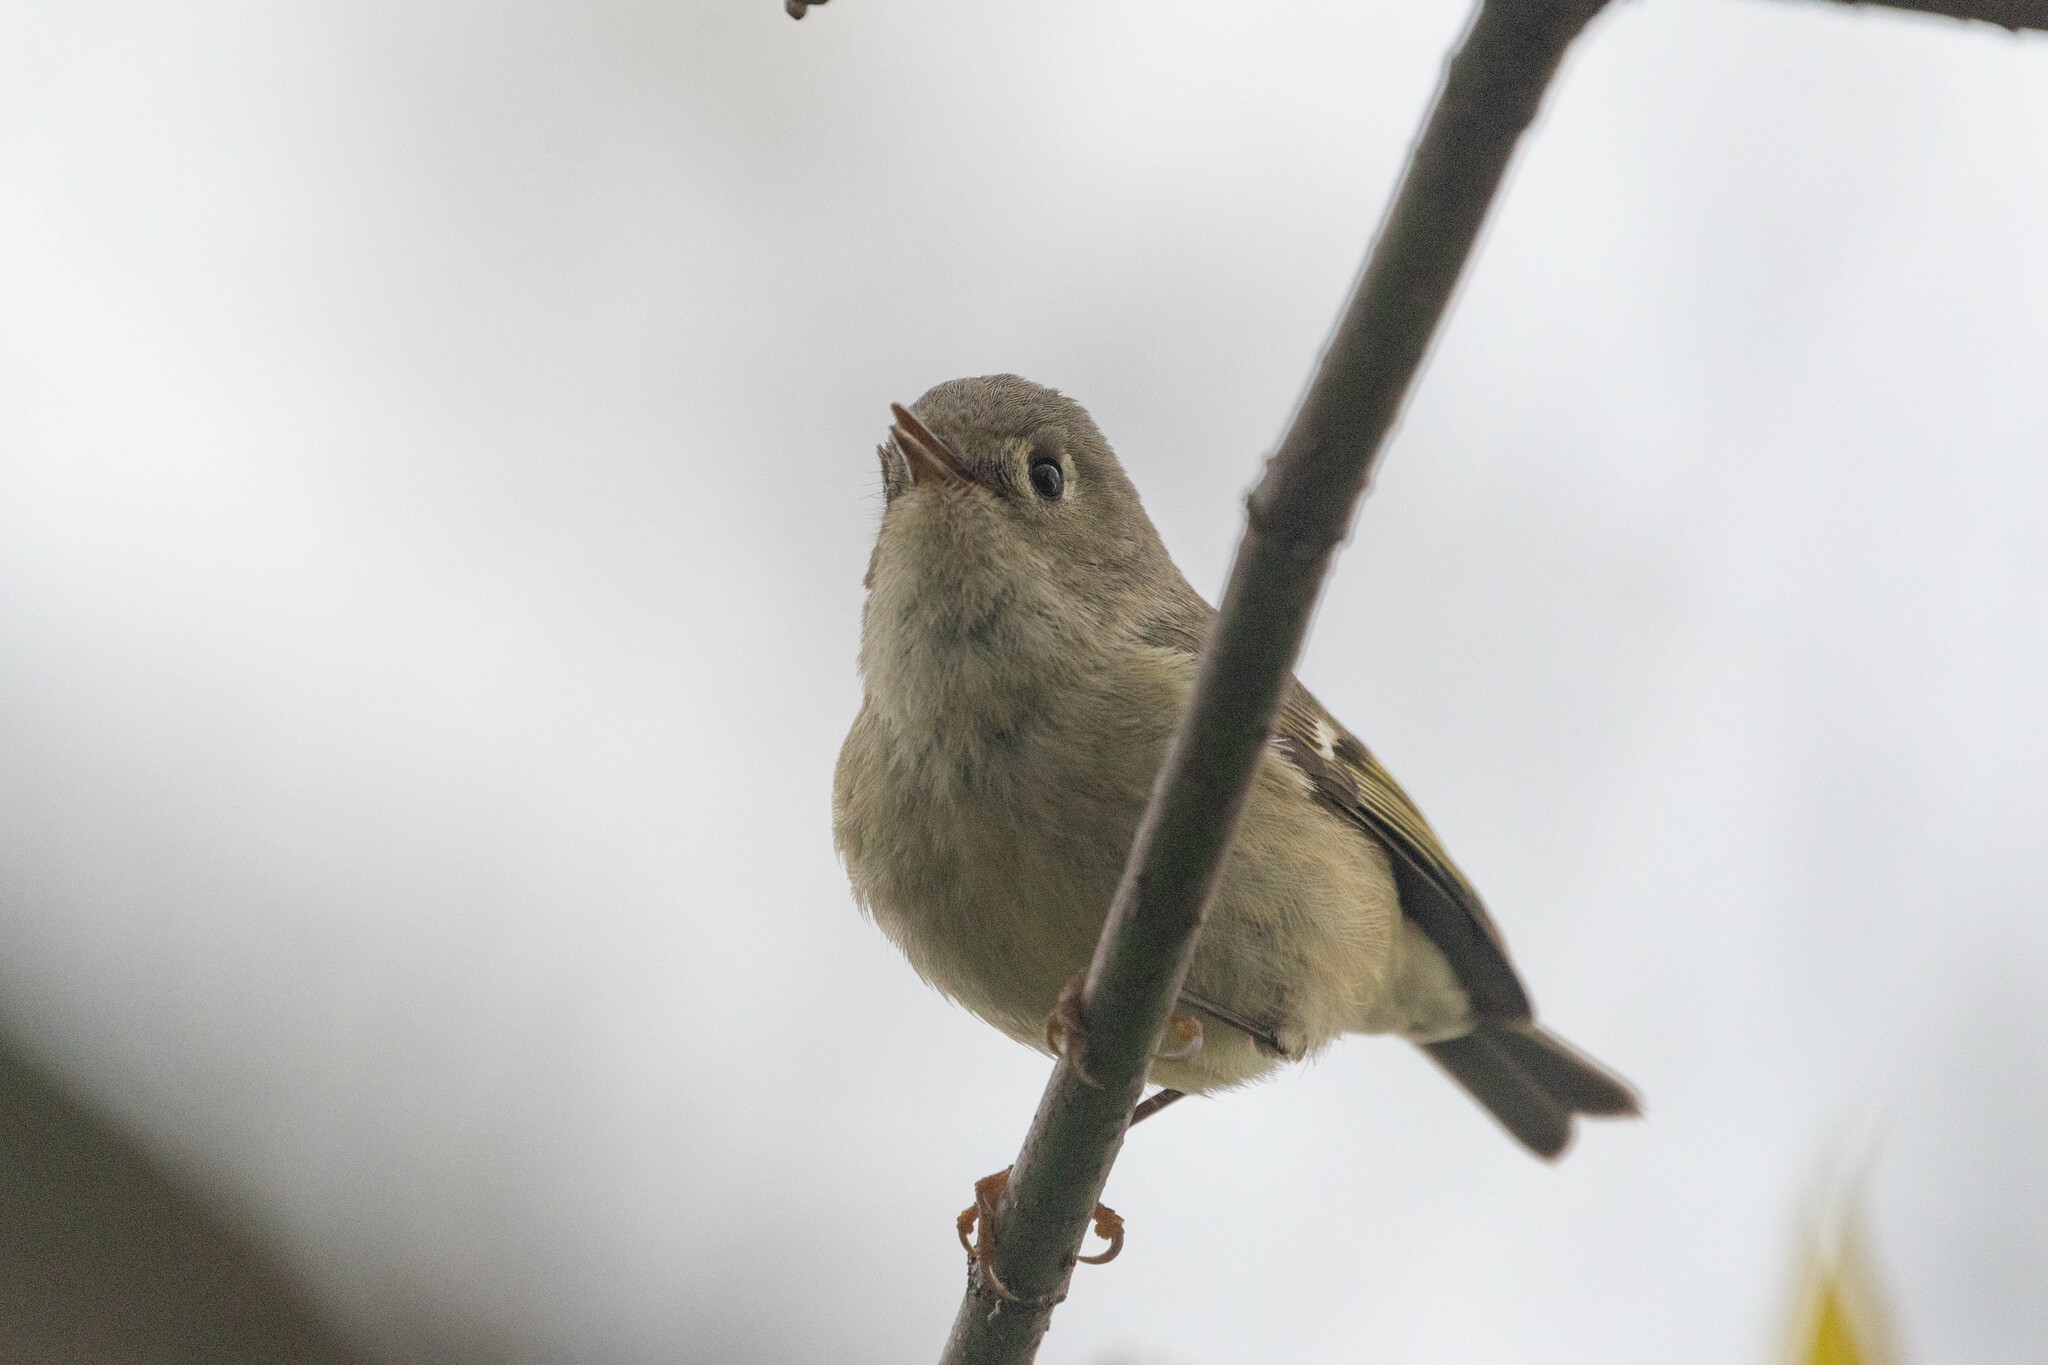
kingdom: Animalia
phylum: Chordata
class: Aves
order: Passeriformes
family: Regulidae
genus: Regulus
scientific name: Regulus calendula
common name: Ruby-crowned kinglet
